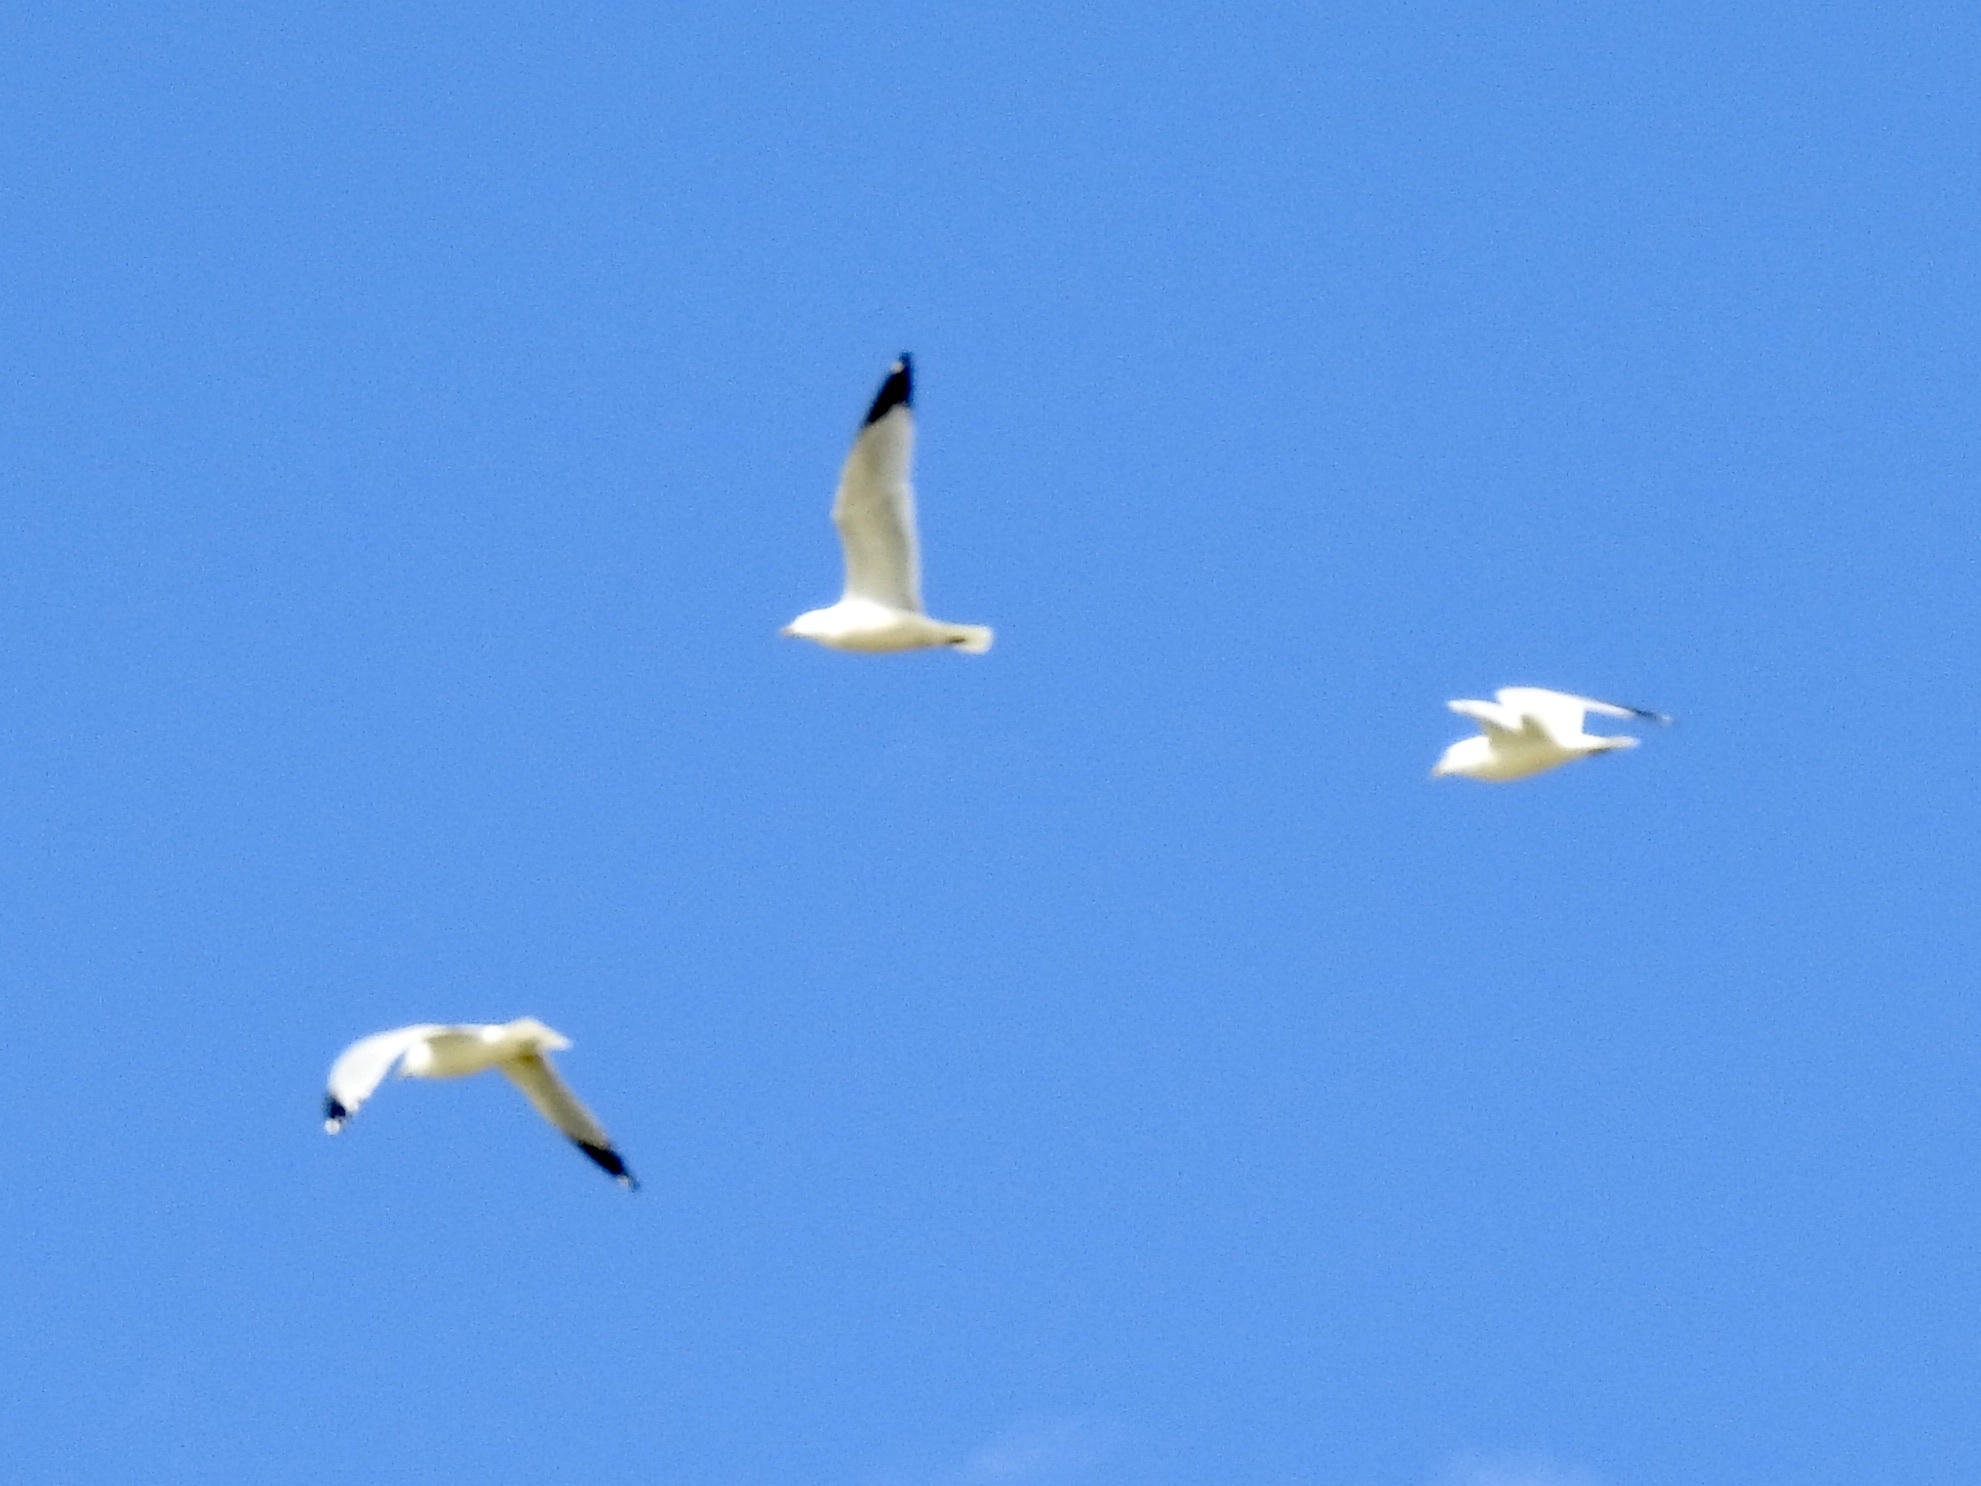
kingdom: Animalia
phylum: Chordata
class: Aves
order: Charadriiformes
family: Laridae
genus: Larus
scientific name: Larus delawarensis
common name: Ring-billed gull
